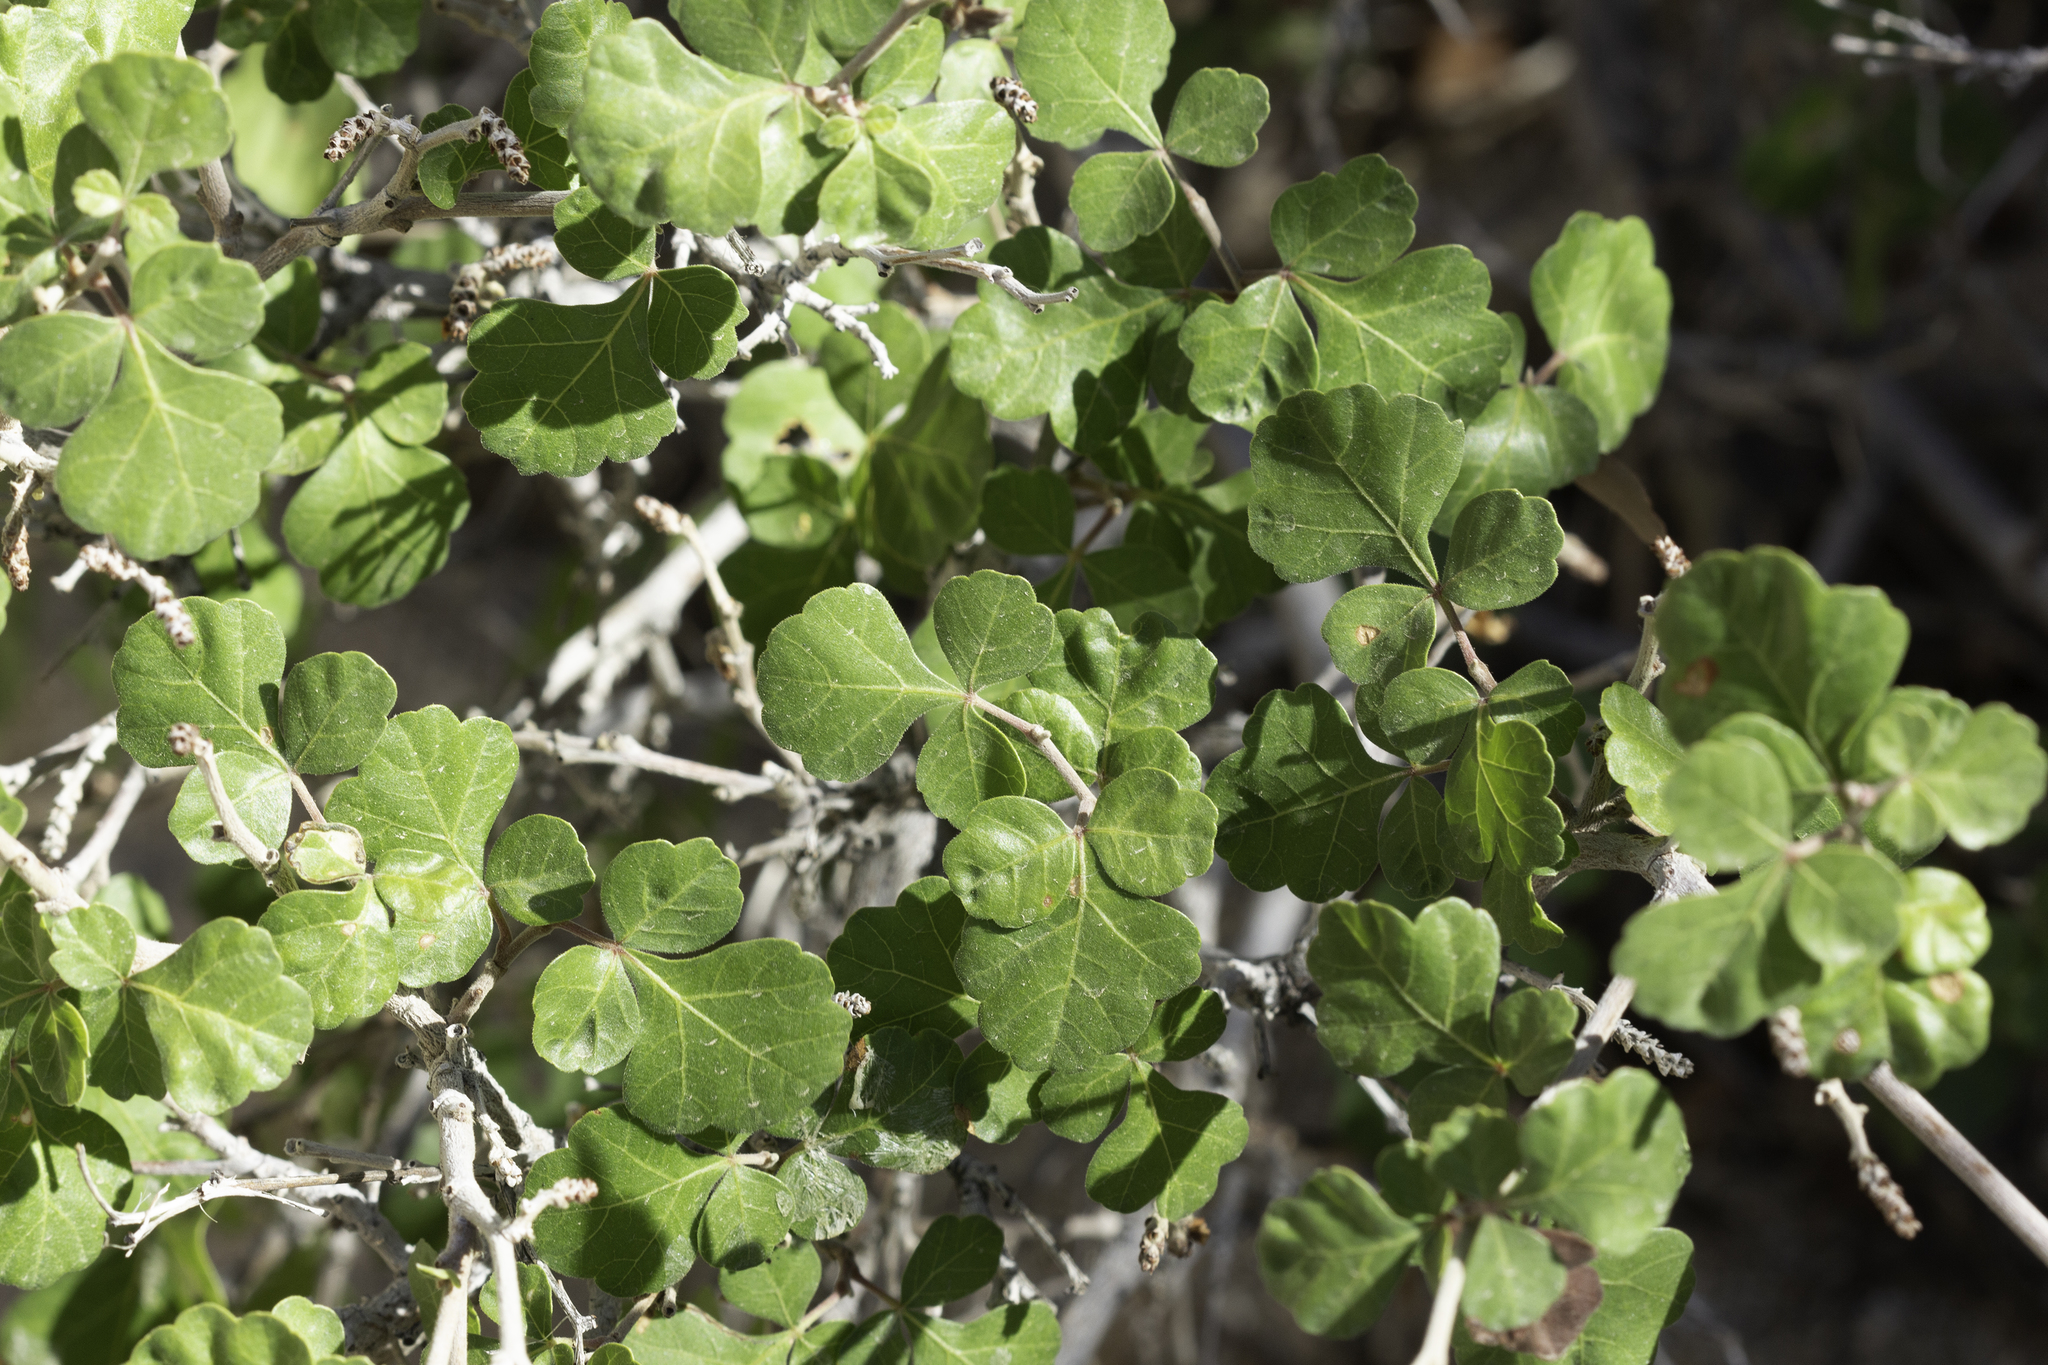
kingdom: Plantae
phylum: Tracheophyta
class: Magnoliopsida
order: Sapindales
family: Anacardiaceae
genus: Rhus
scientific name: Rhus aromatica
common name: Aromatic sumac
